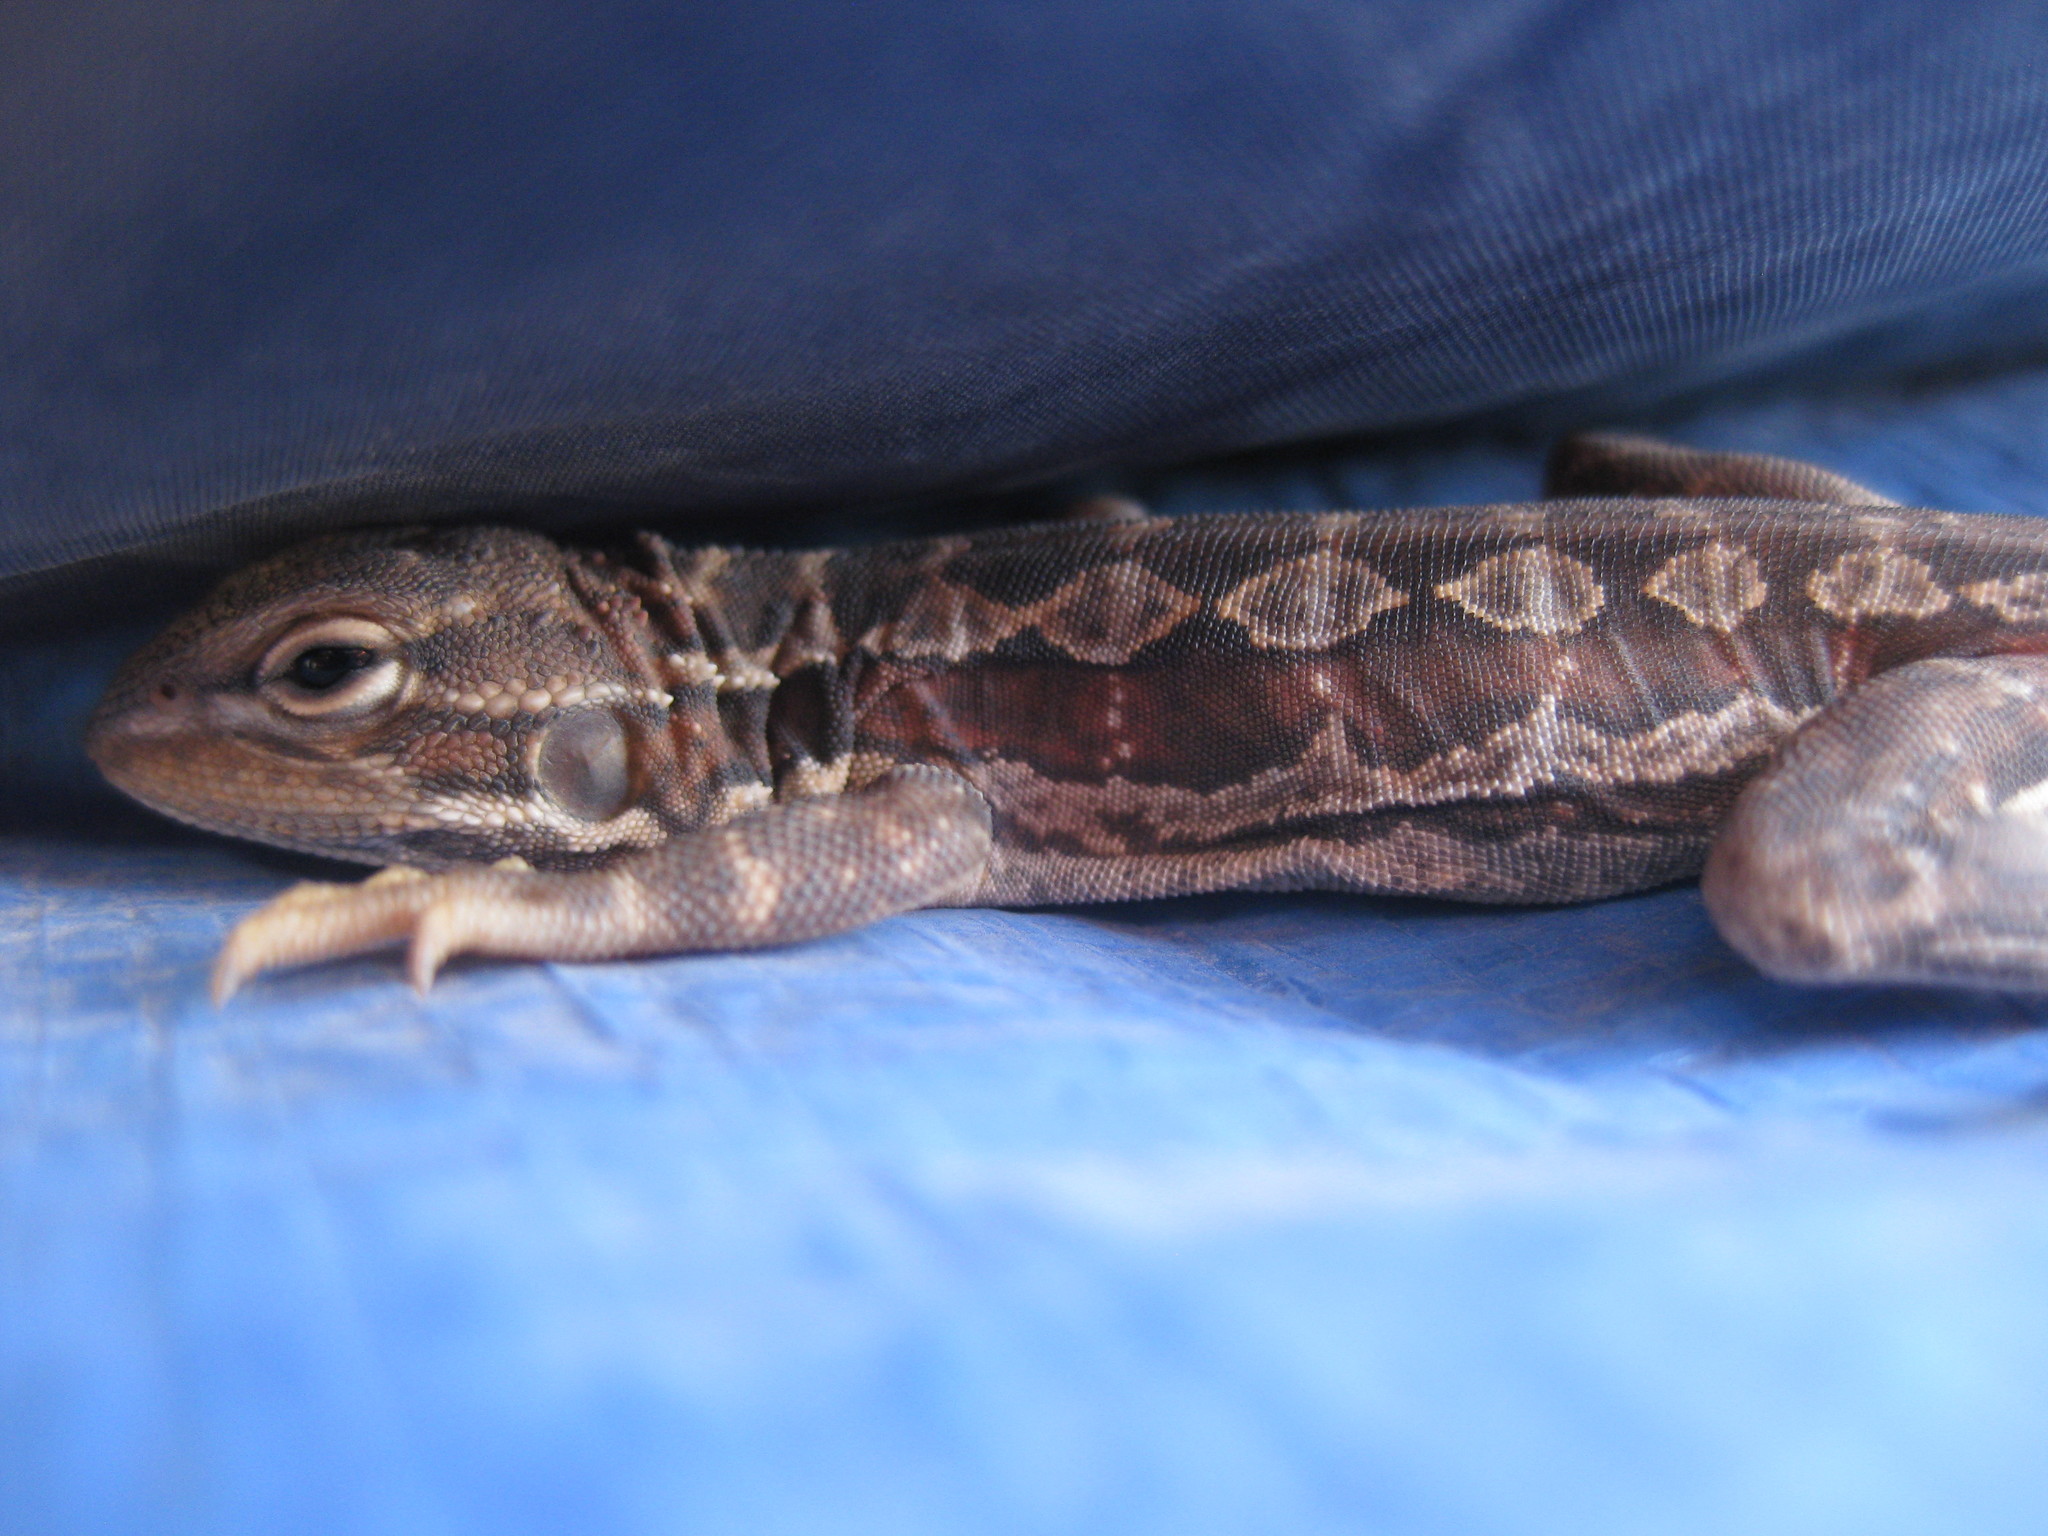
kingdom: Animalia
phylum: Chordata
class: Squamata
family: Agamidae
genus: Ctenophorus
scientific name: Ctenophorus scutulatus
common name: Lozenge-marked dragon
